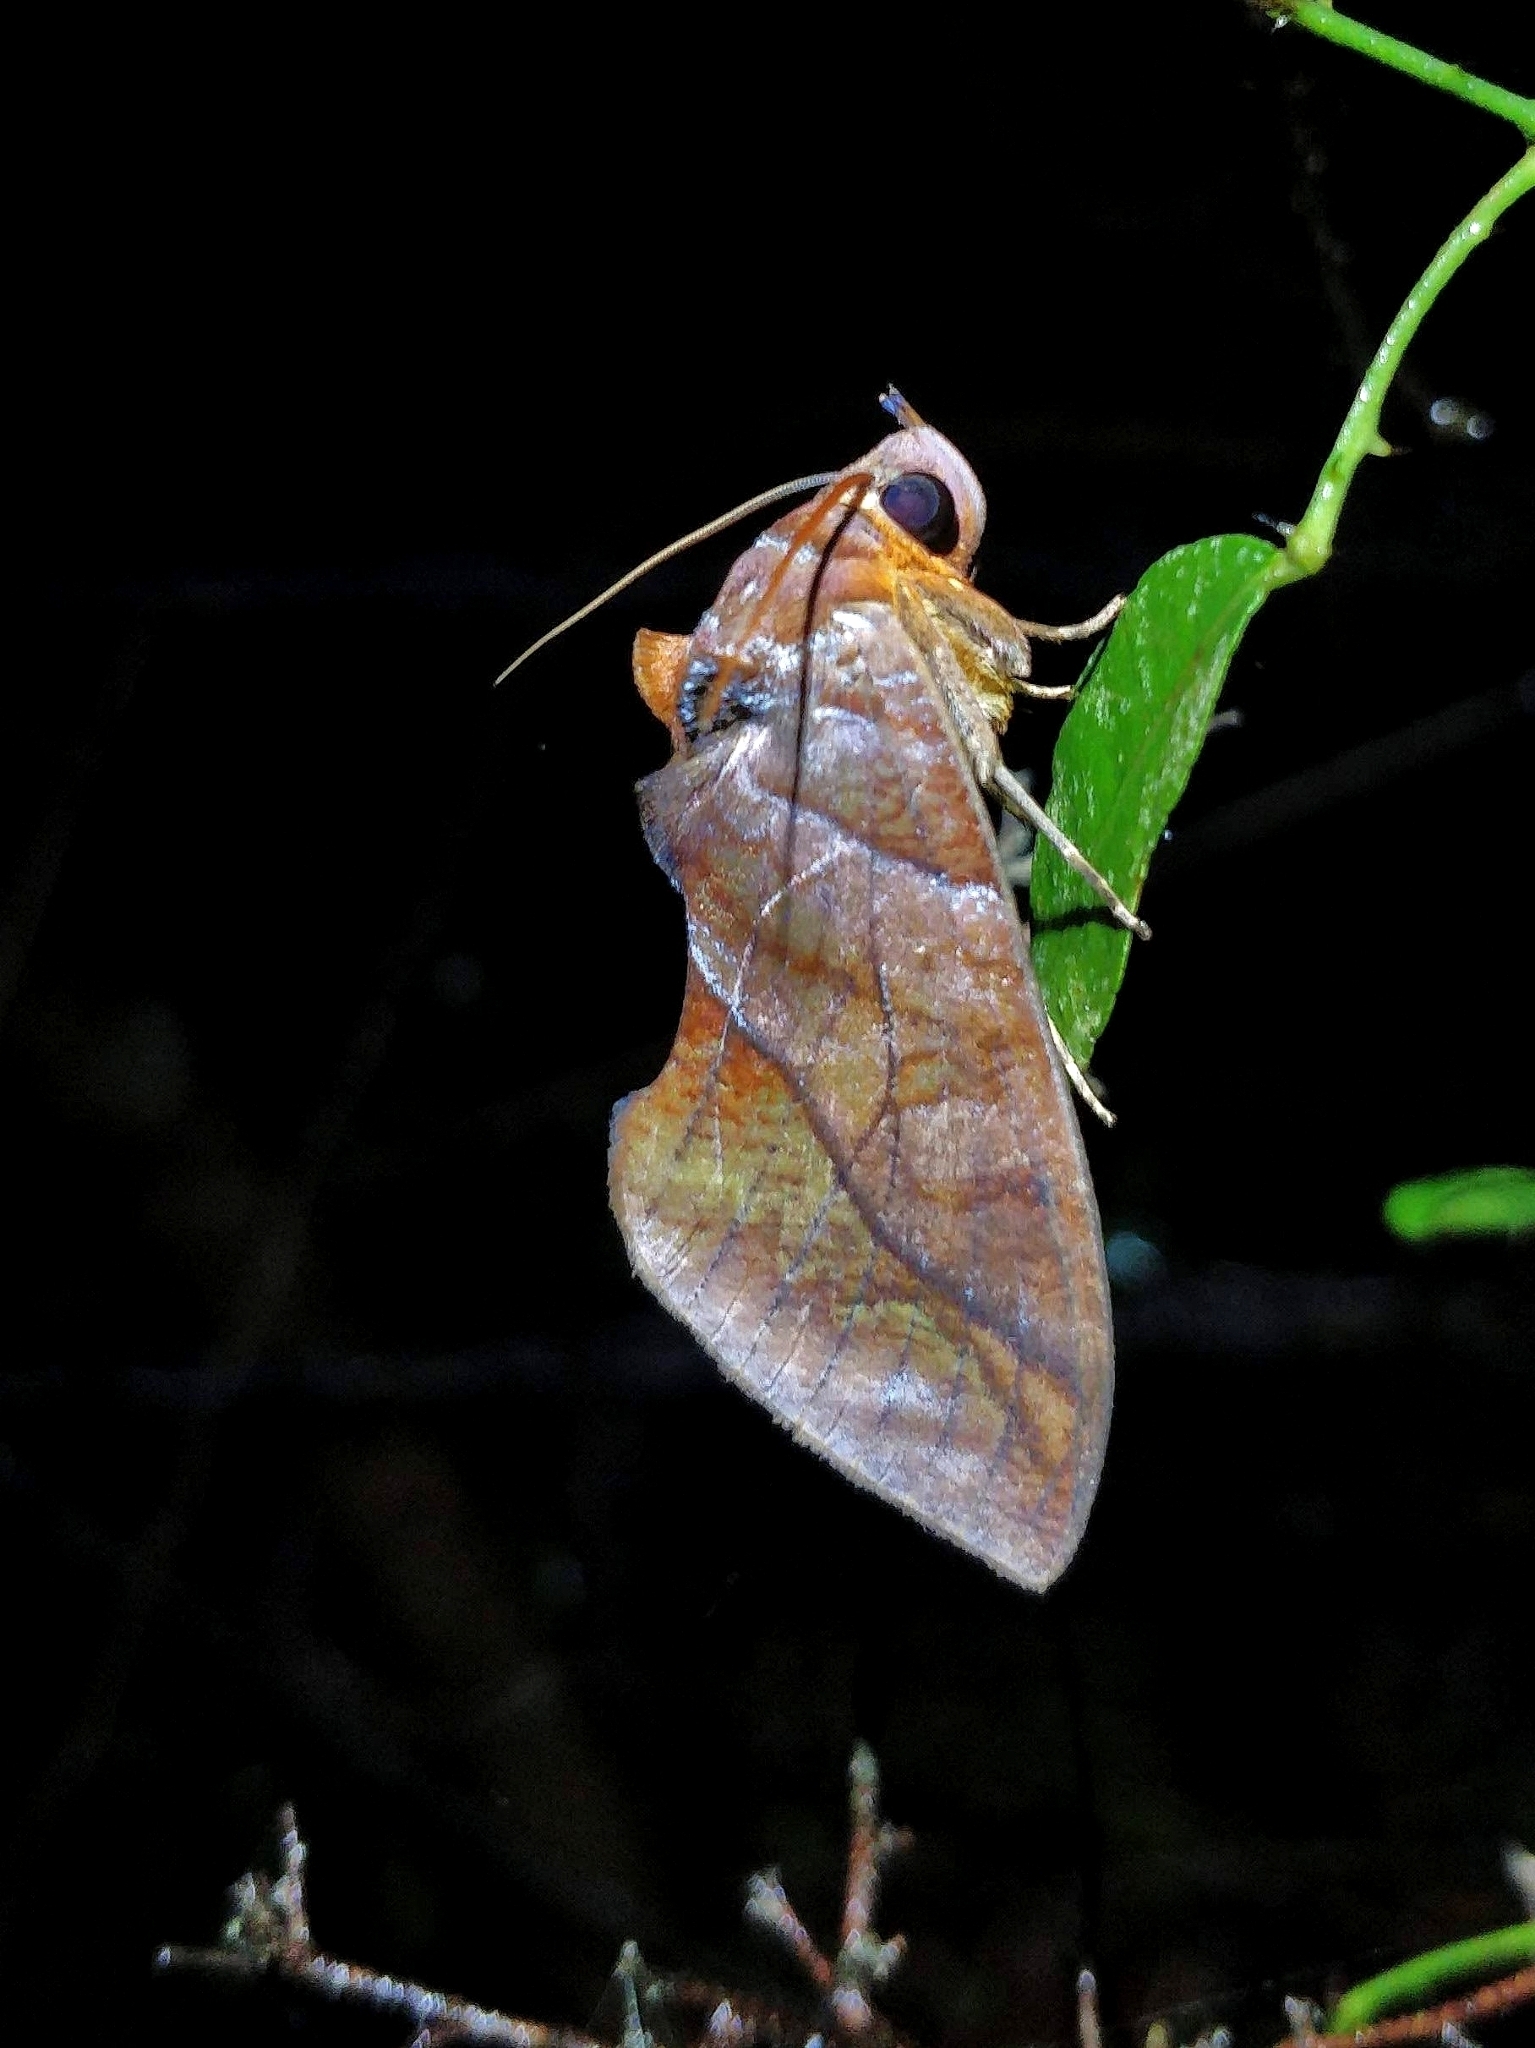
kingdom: Animalia
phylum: Arthropoda
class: Insecta
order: Lepidoptera
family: Erebidae
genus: Eudocima
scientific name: Eudocima homaena
